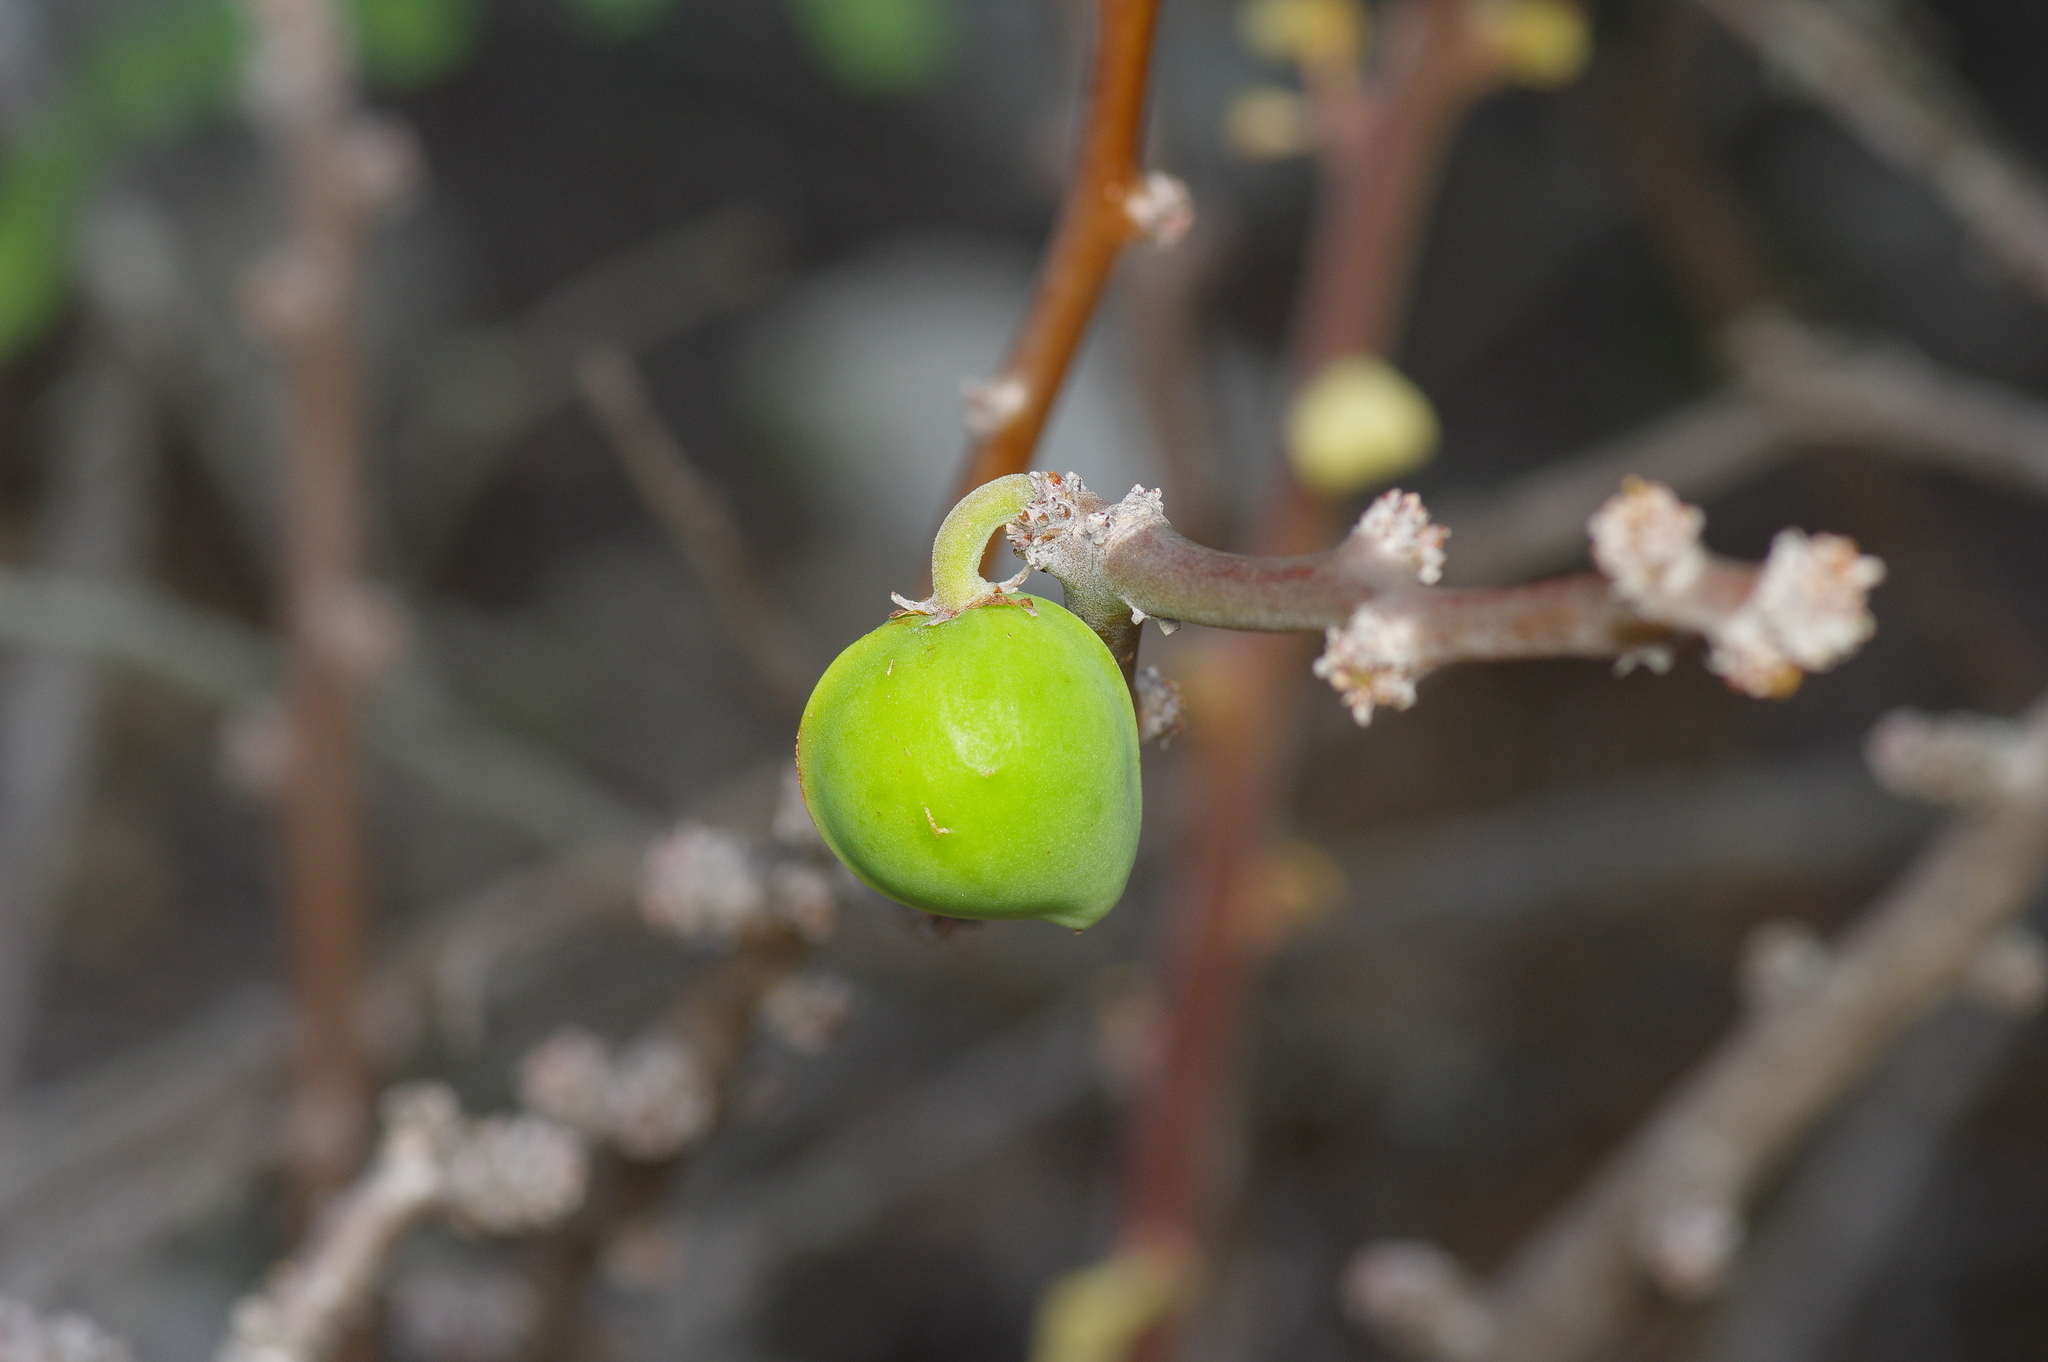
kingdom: Plantae
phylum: Tracheophyta
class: Magnoliopsida
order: Malpighiales
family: Euphorbiaceae
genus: Jatropha
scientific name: Jatropha dioica
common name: Leatherstem
